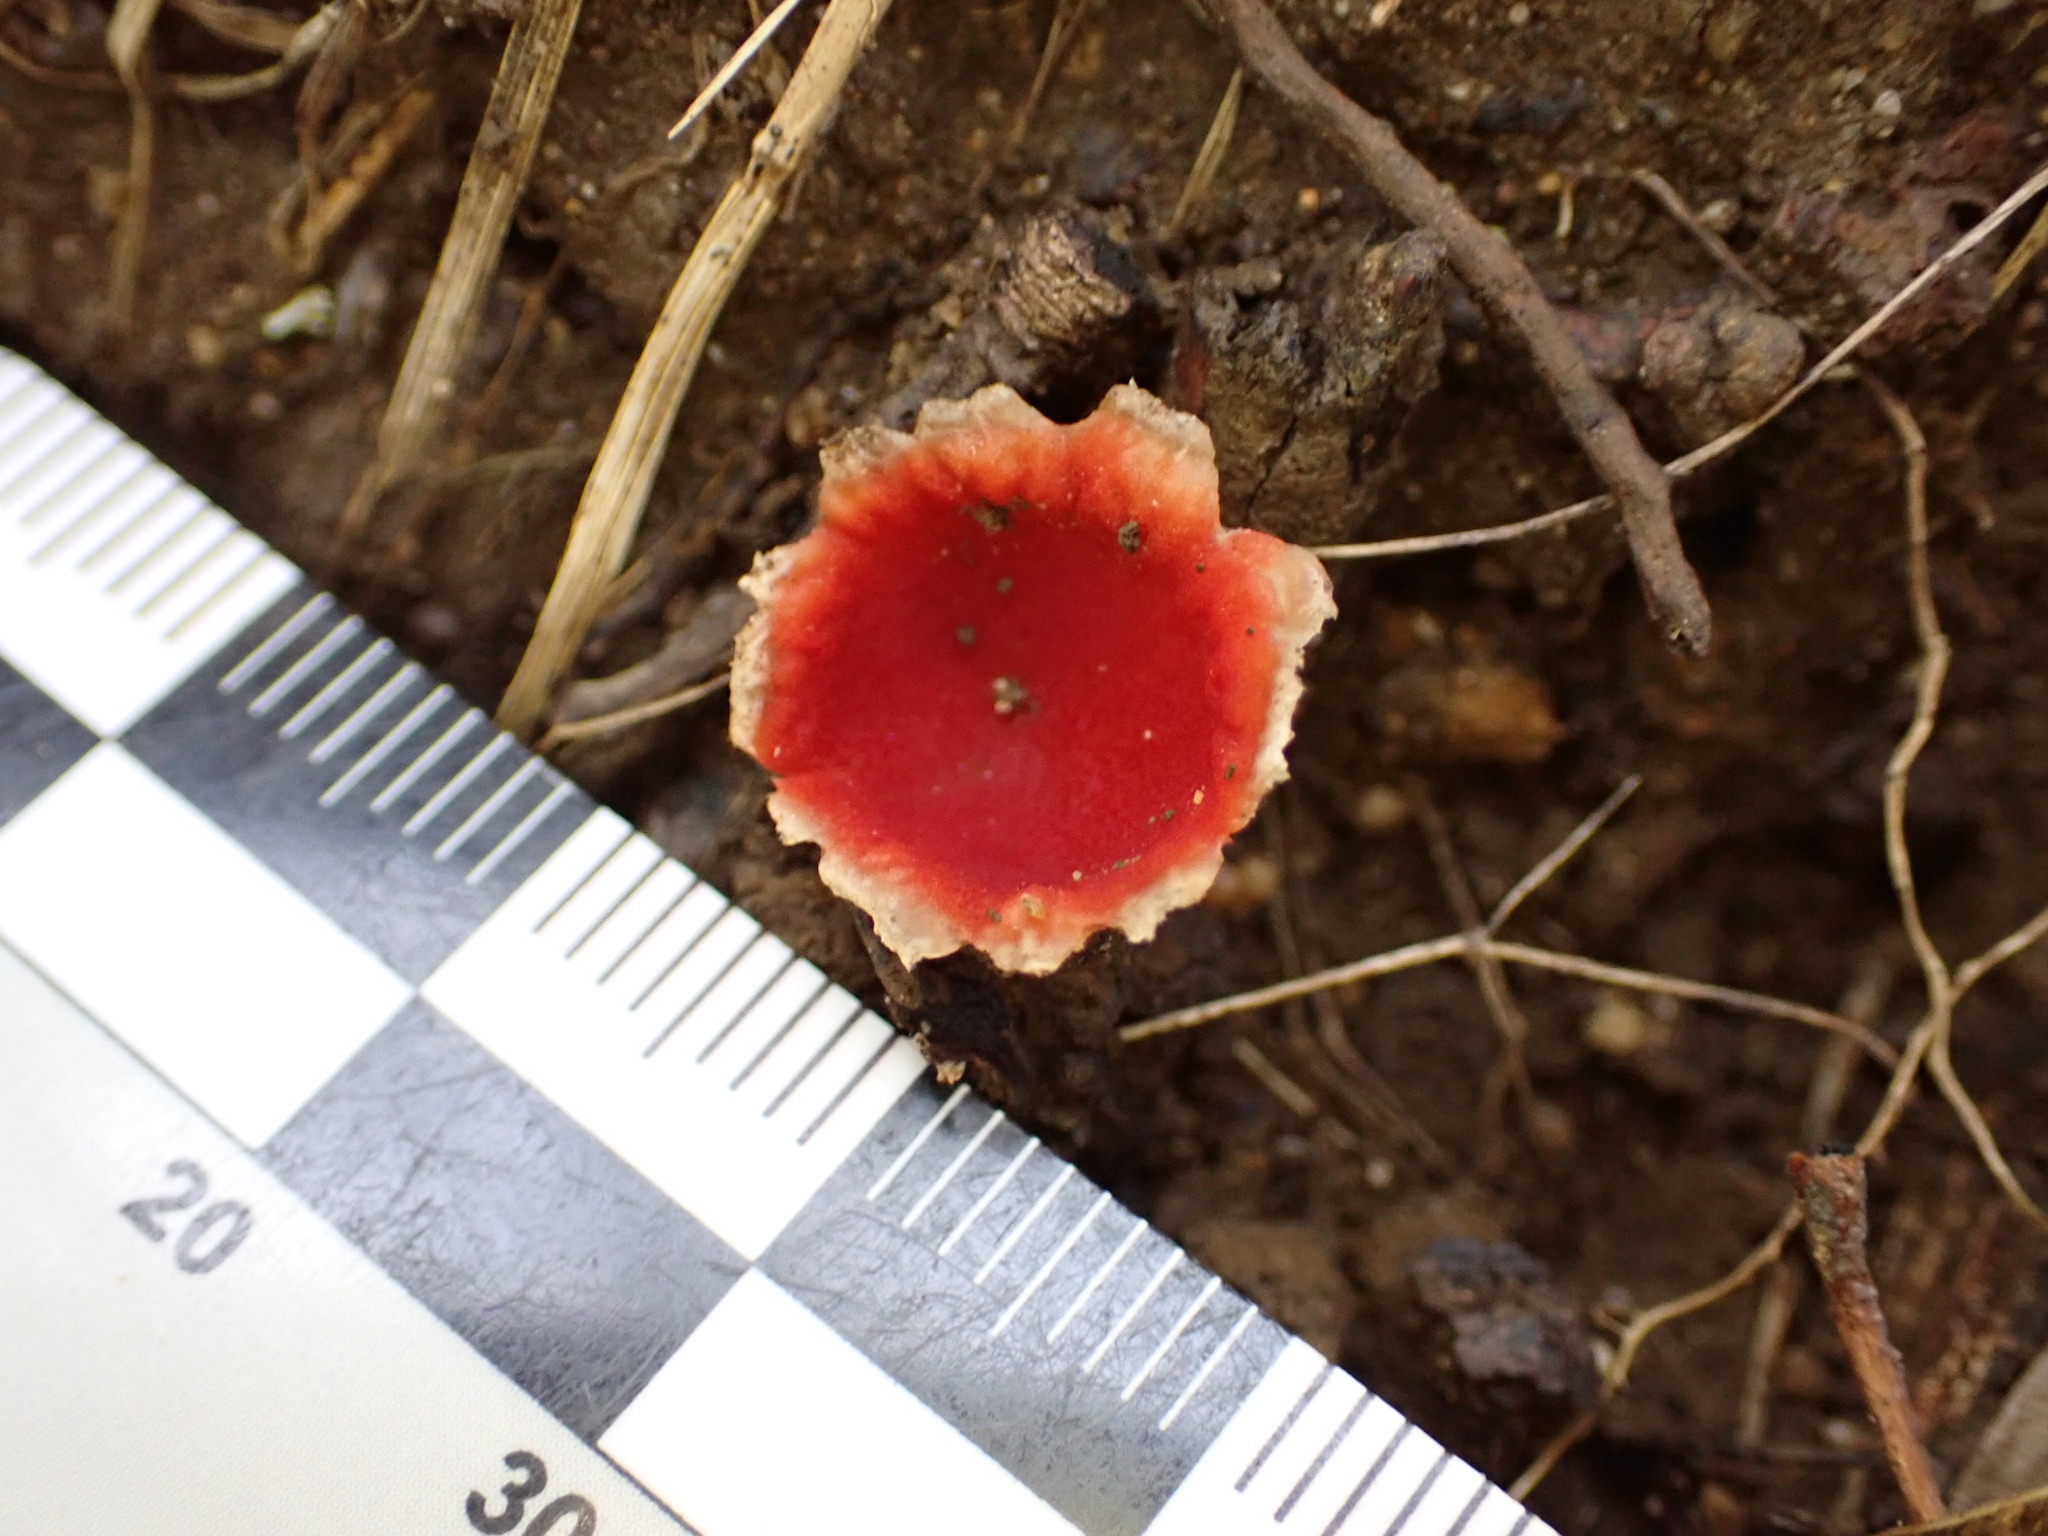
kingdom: Fungi
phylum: Ascomycota
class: Pezizomycetes
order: Pezizales
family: Sarcoscyphaceae
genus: Microstoma
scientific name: Microstoma protractum
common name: Rosy goblet
